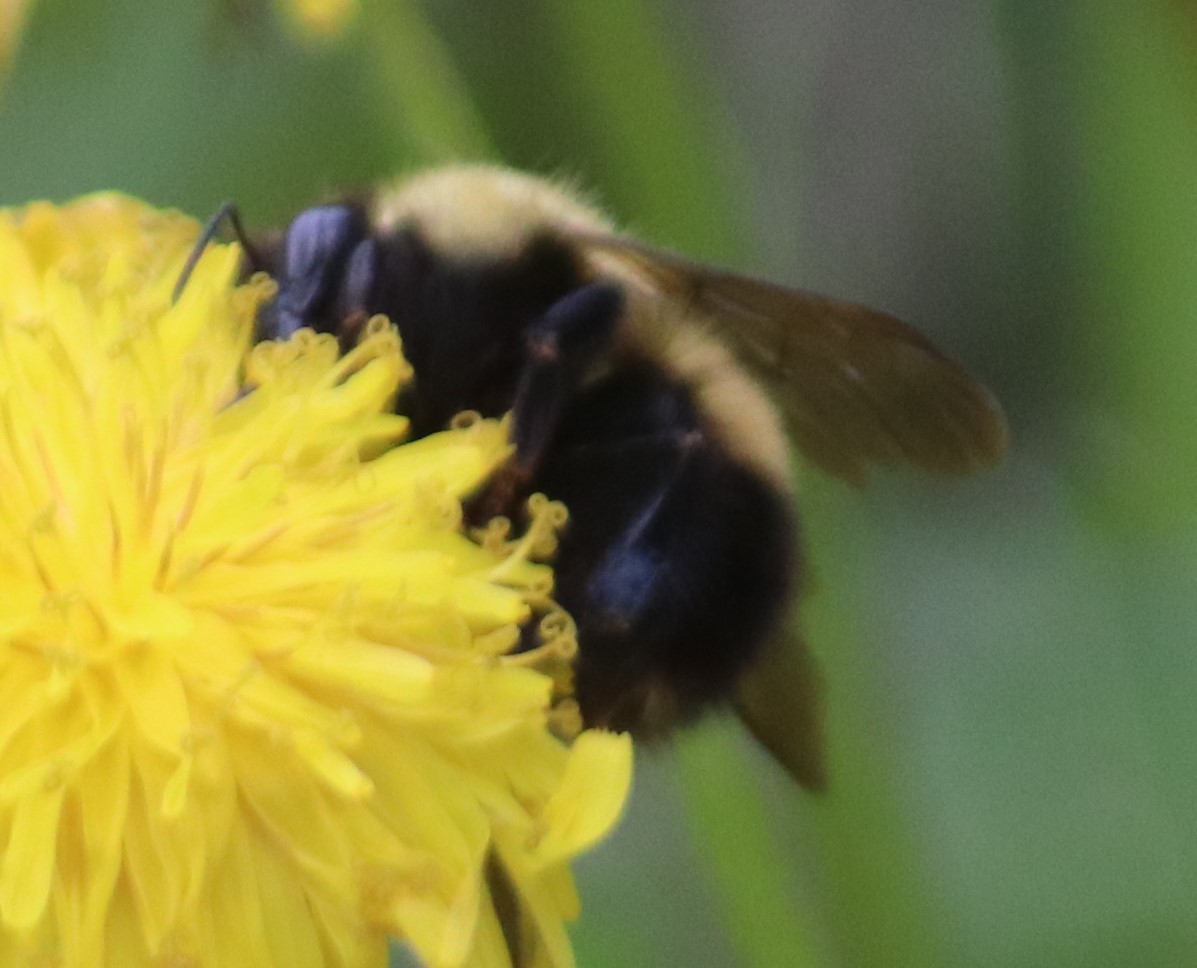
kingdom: Animalia
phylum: Arthropoda
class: Insecta
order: Hymenoptera
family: Apidae
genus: Bombus
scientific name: Bombus perplexus
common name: Confusing bumble bee
